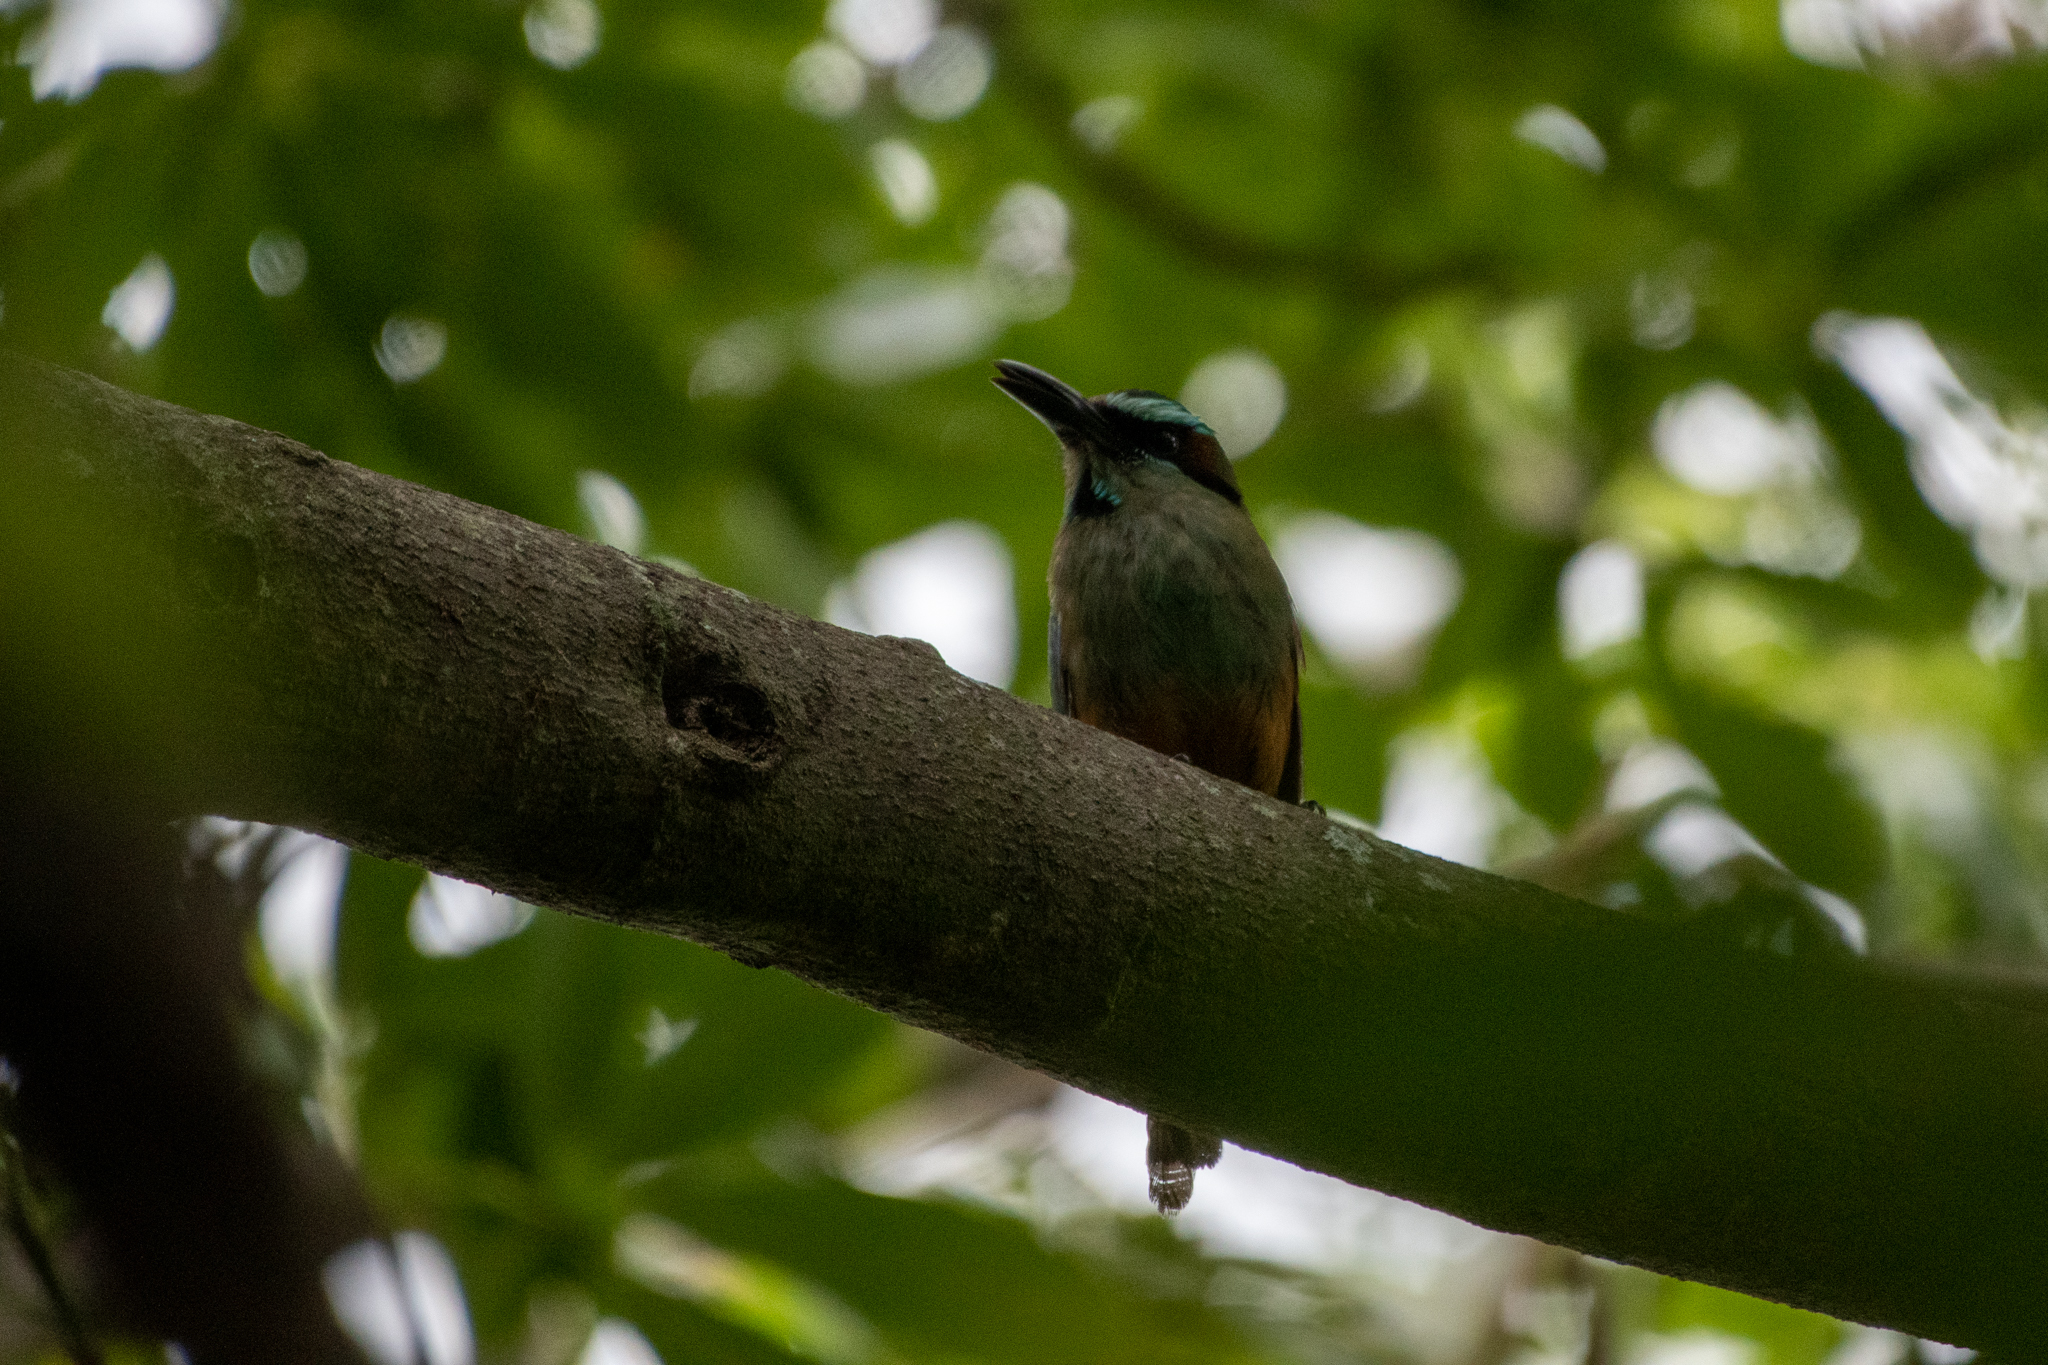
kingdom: Animalia
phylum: Chordata
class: Aves
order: Coraciiformes
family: Momotidae
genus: Eumomota
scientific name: Eumomota superciliosa
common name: Turquoise-browed motmot
